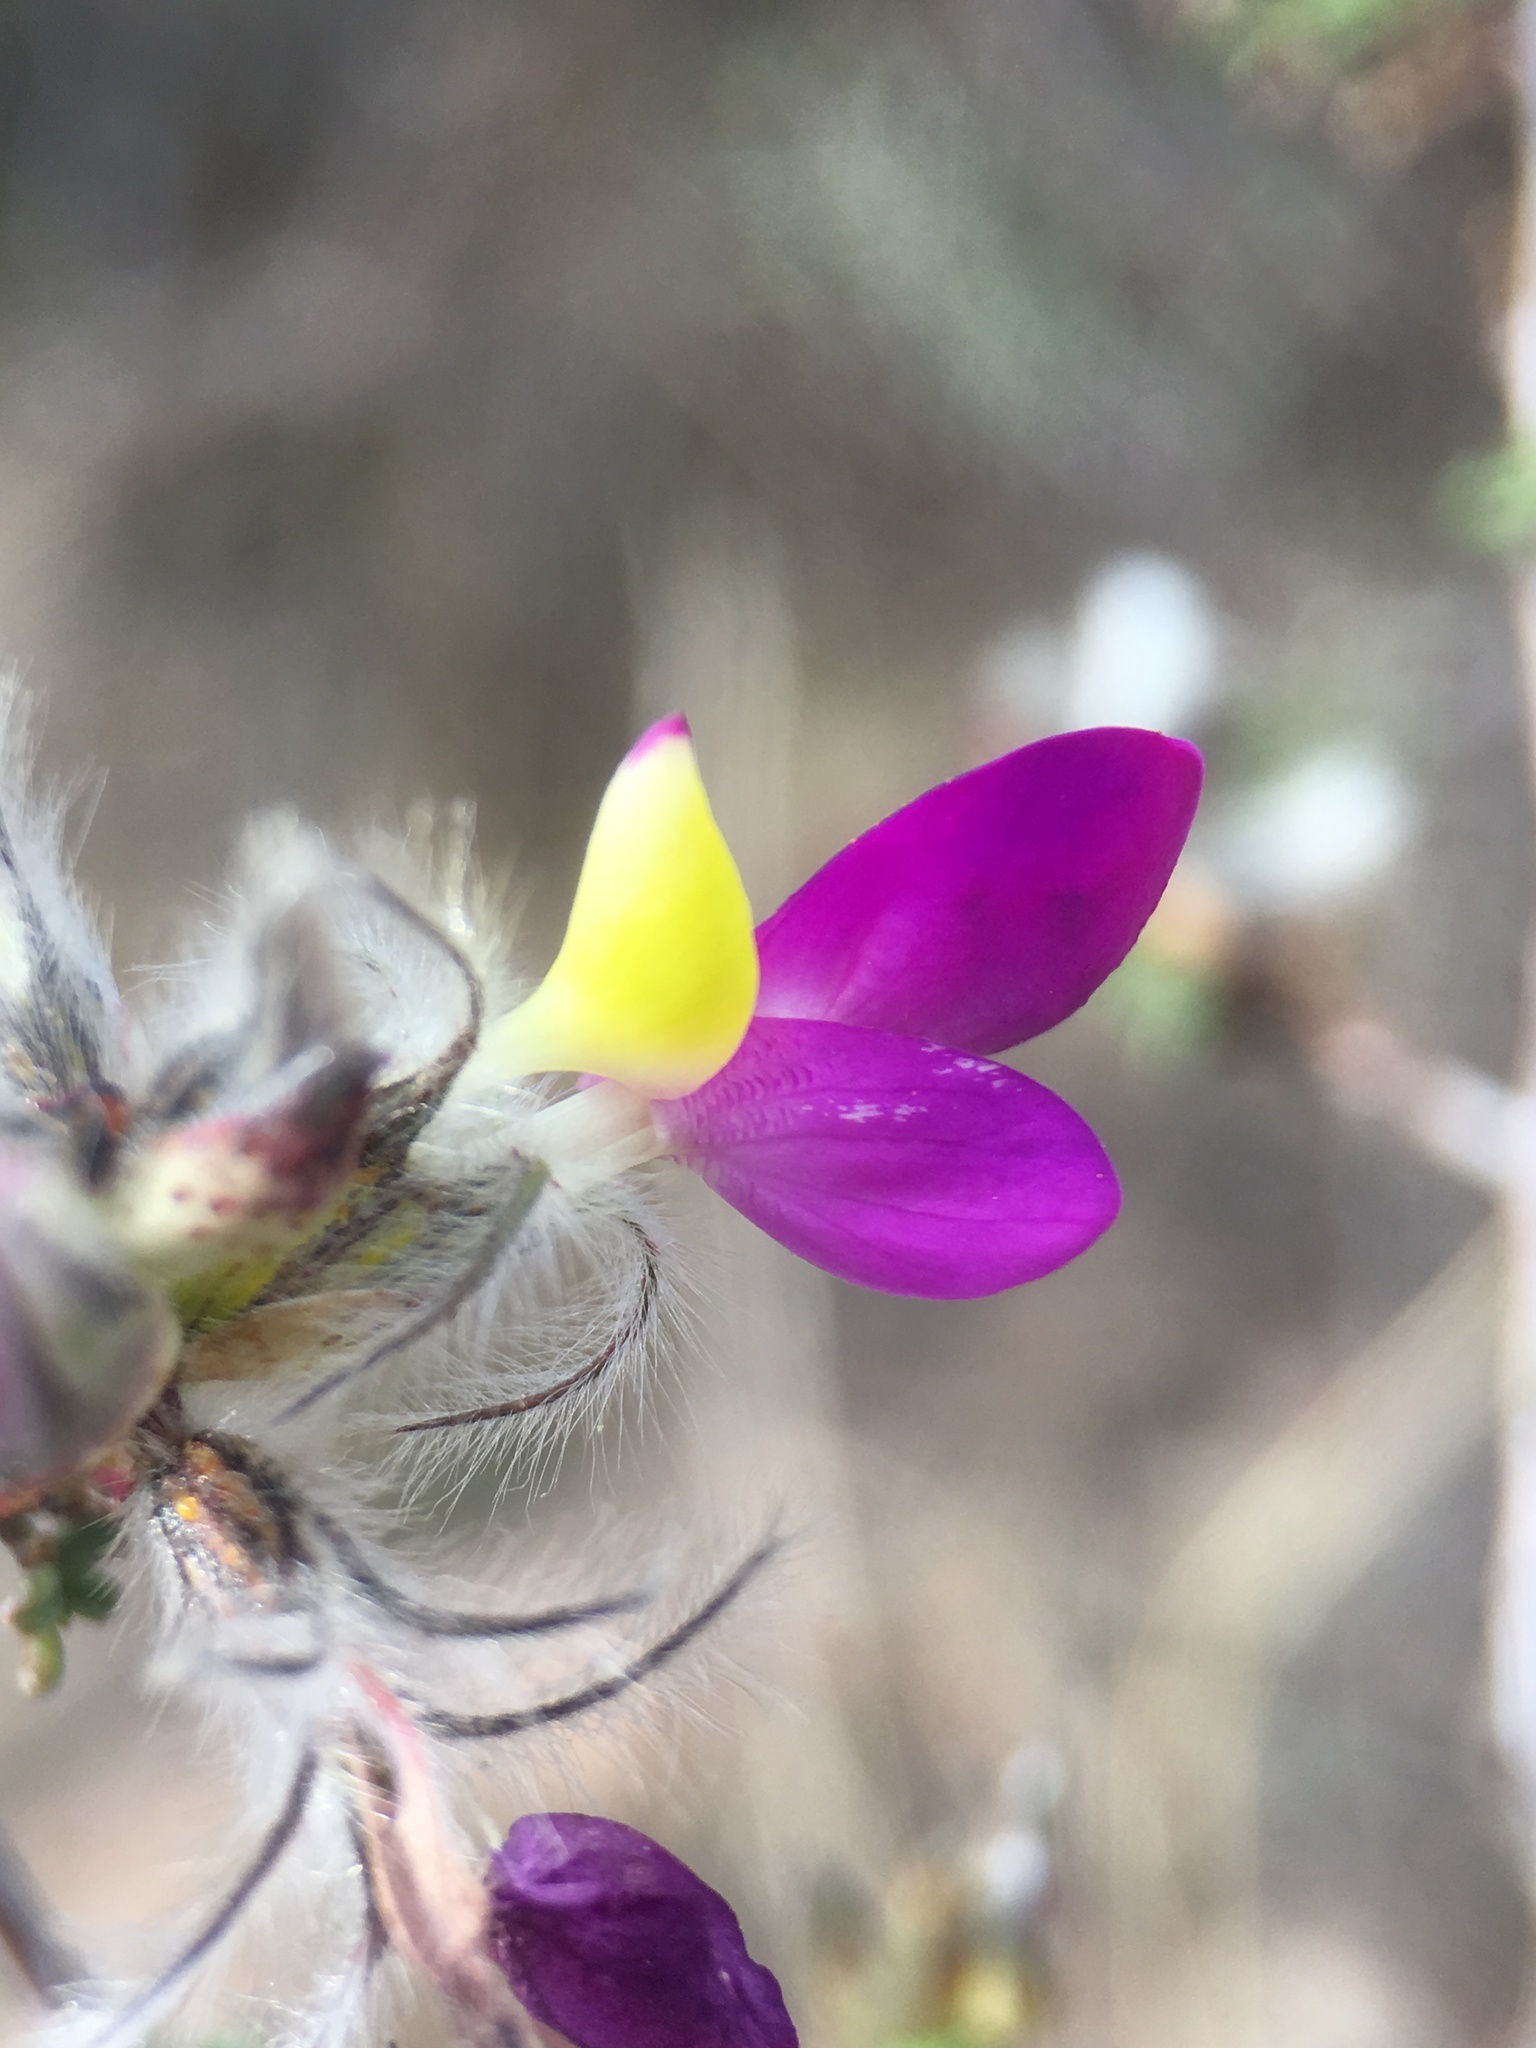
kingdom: Plantae
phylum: Tracheophyta
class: Magnoliopsida
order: Fabales
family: Fabaceae
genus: Dalea
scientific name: Dalea formosa
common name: Feather-plume dalea
